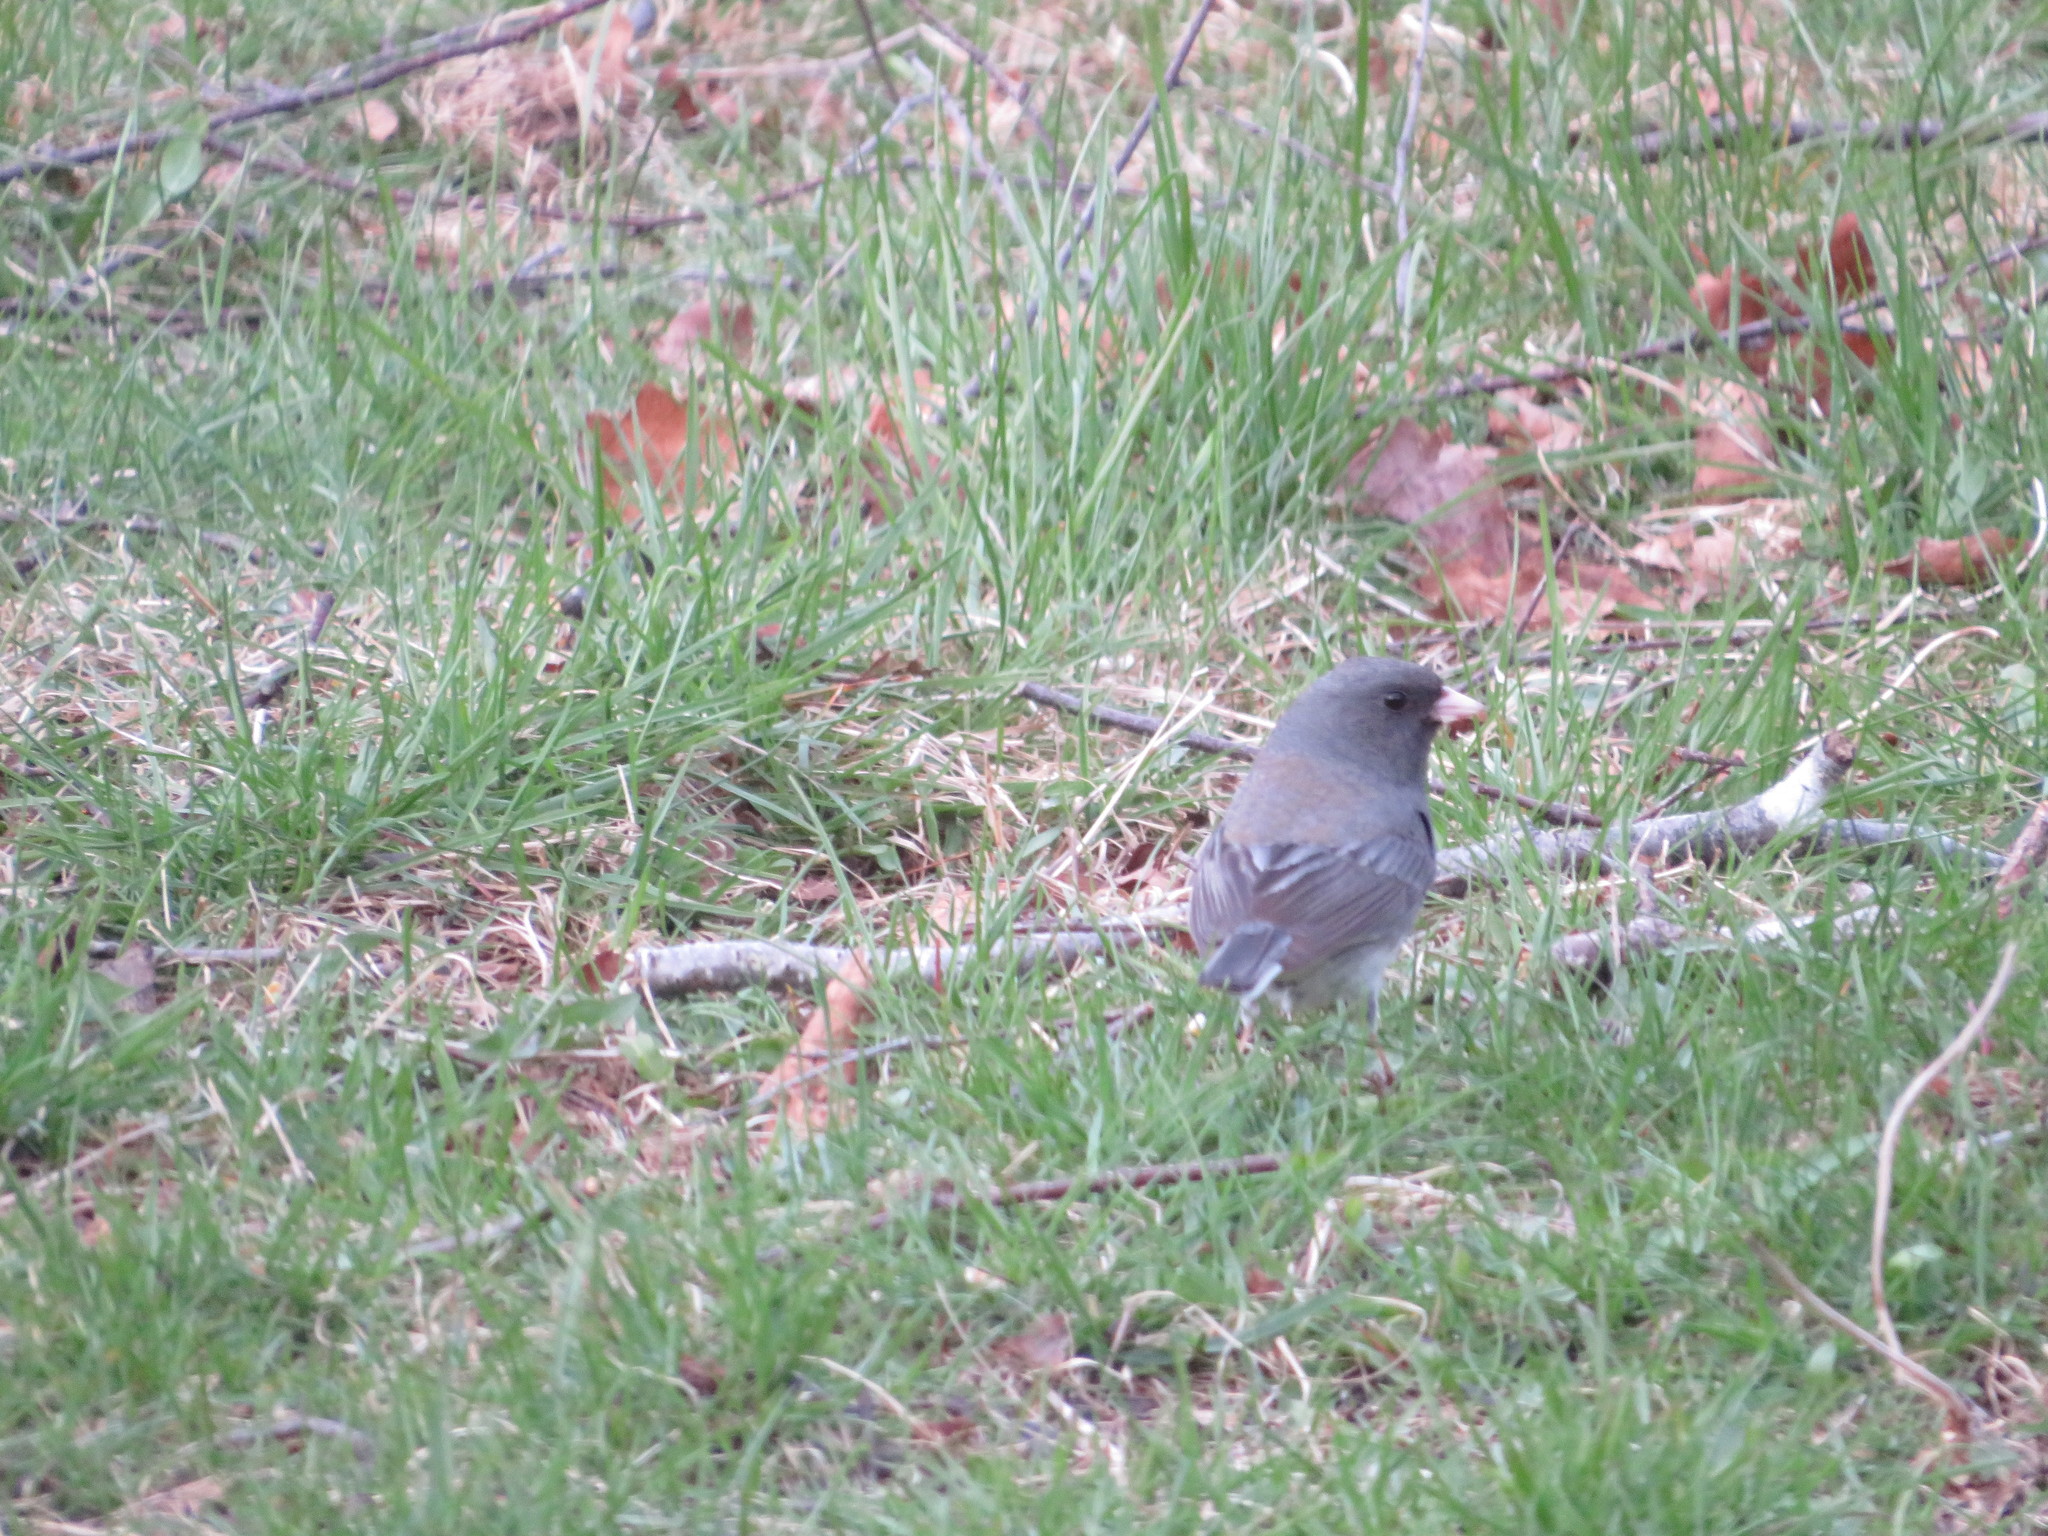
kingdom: Animalia
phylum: Chordata
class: Aves
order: Passeriformes
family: Passerellidae
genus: Junco
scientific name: Junco hyemalis
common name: Dark-eyed junco
